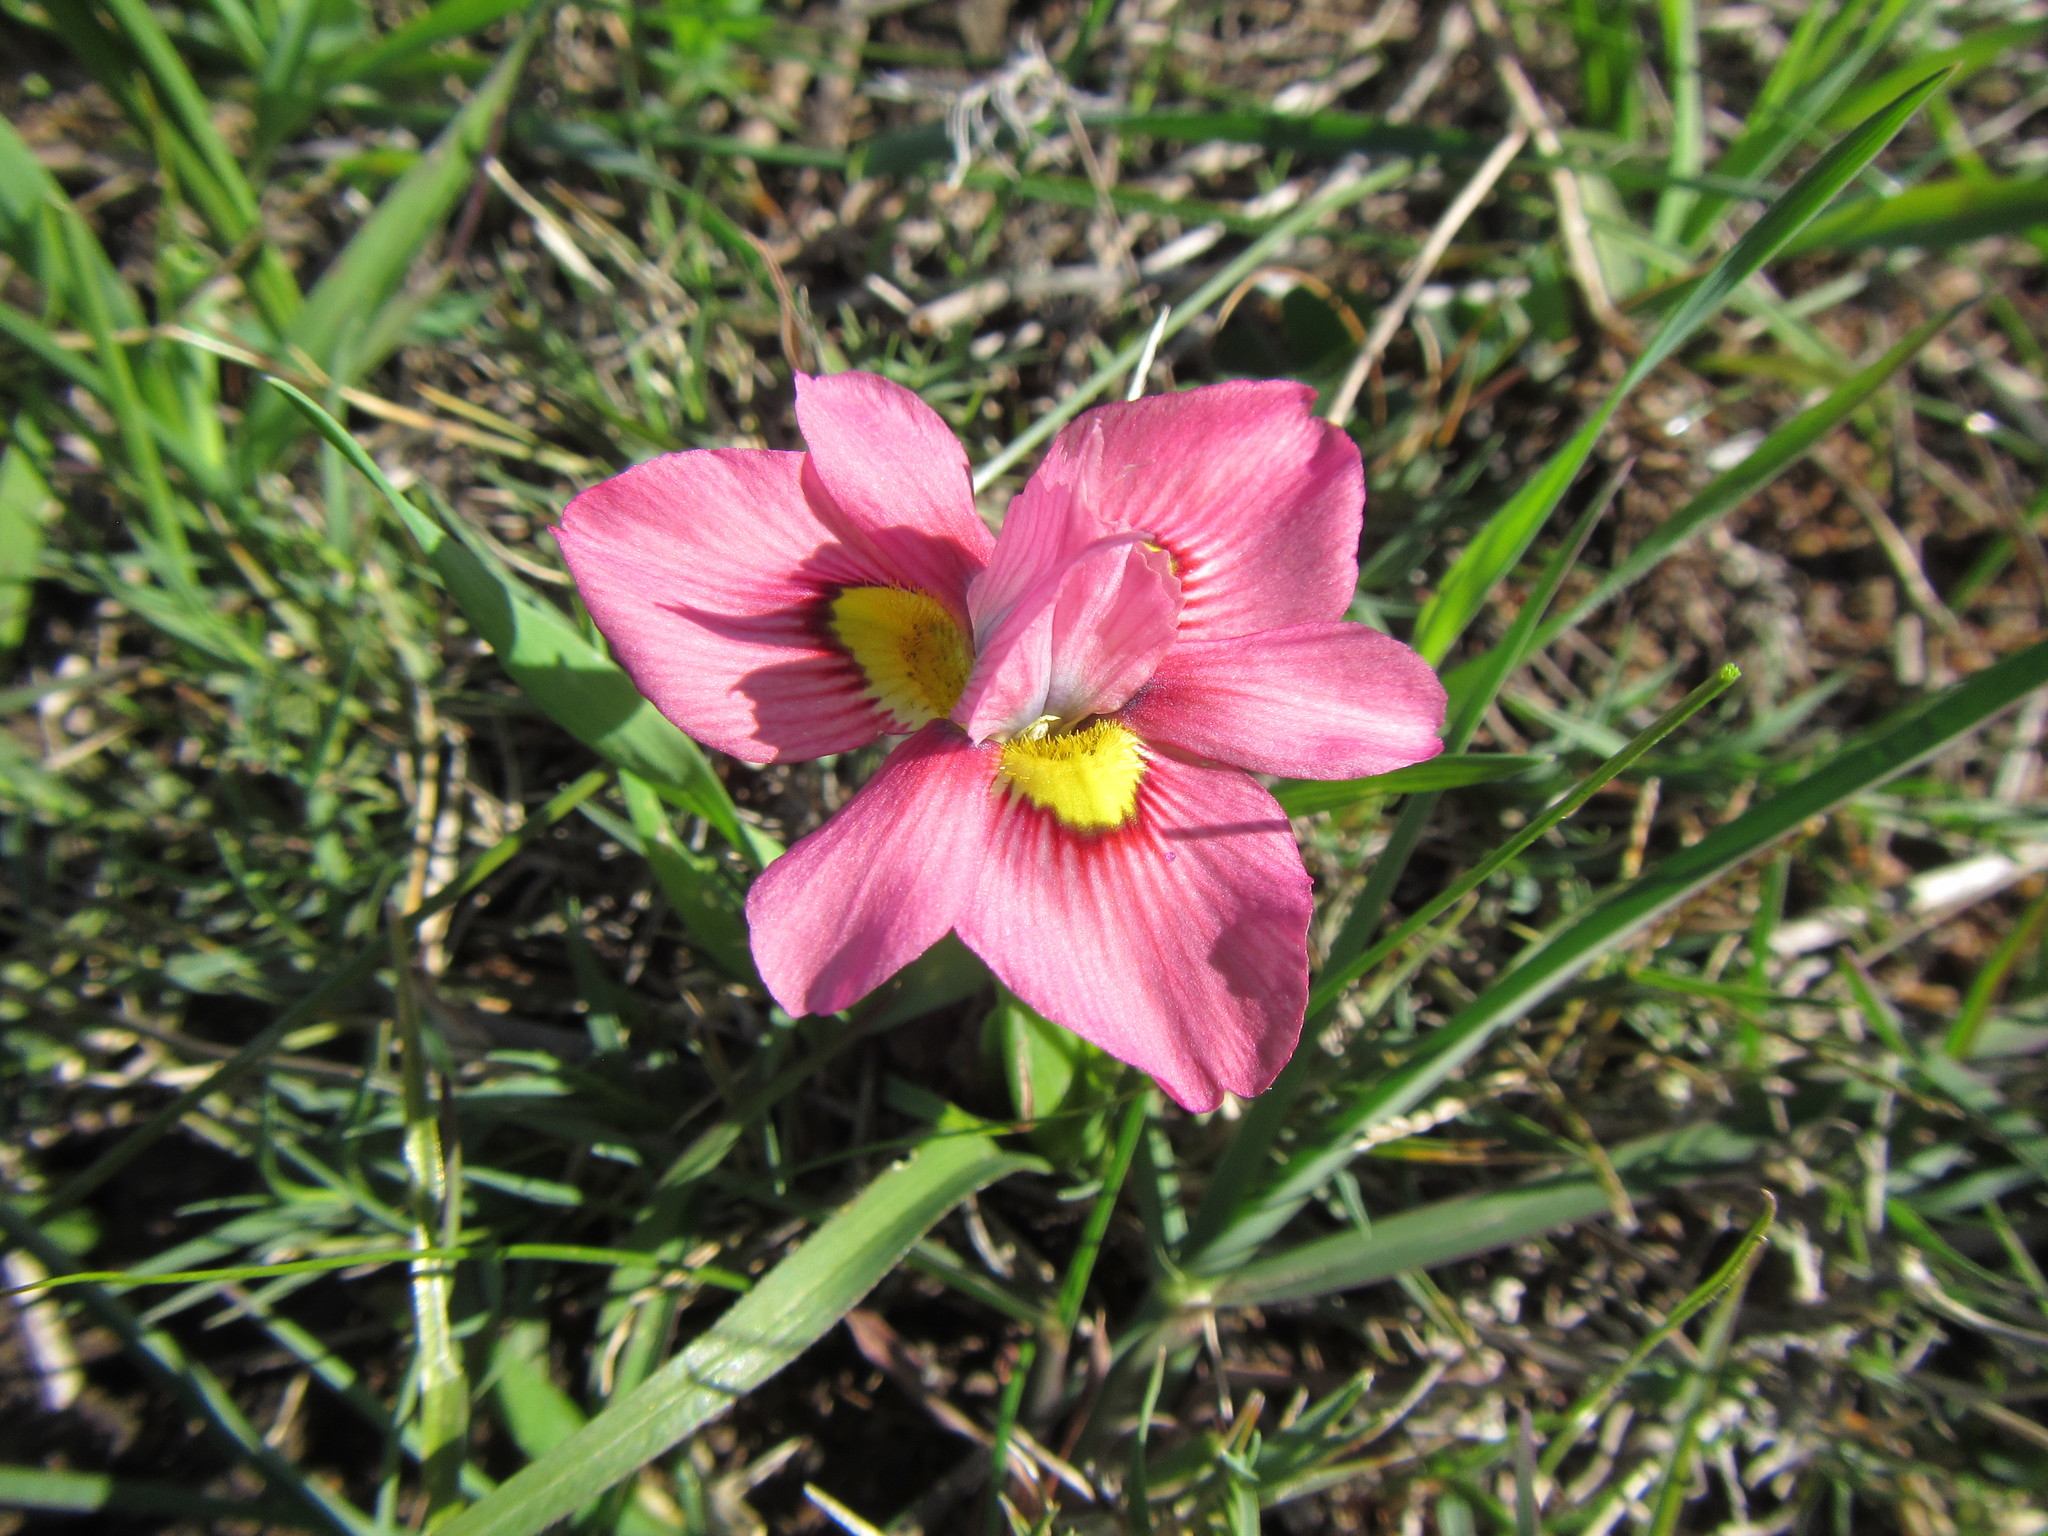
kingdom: Plantae
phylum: Tracheophyta
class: Liliopsida
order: Asparagales
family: Iridaceae
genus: Moraea
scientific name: Moraea tricolor
